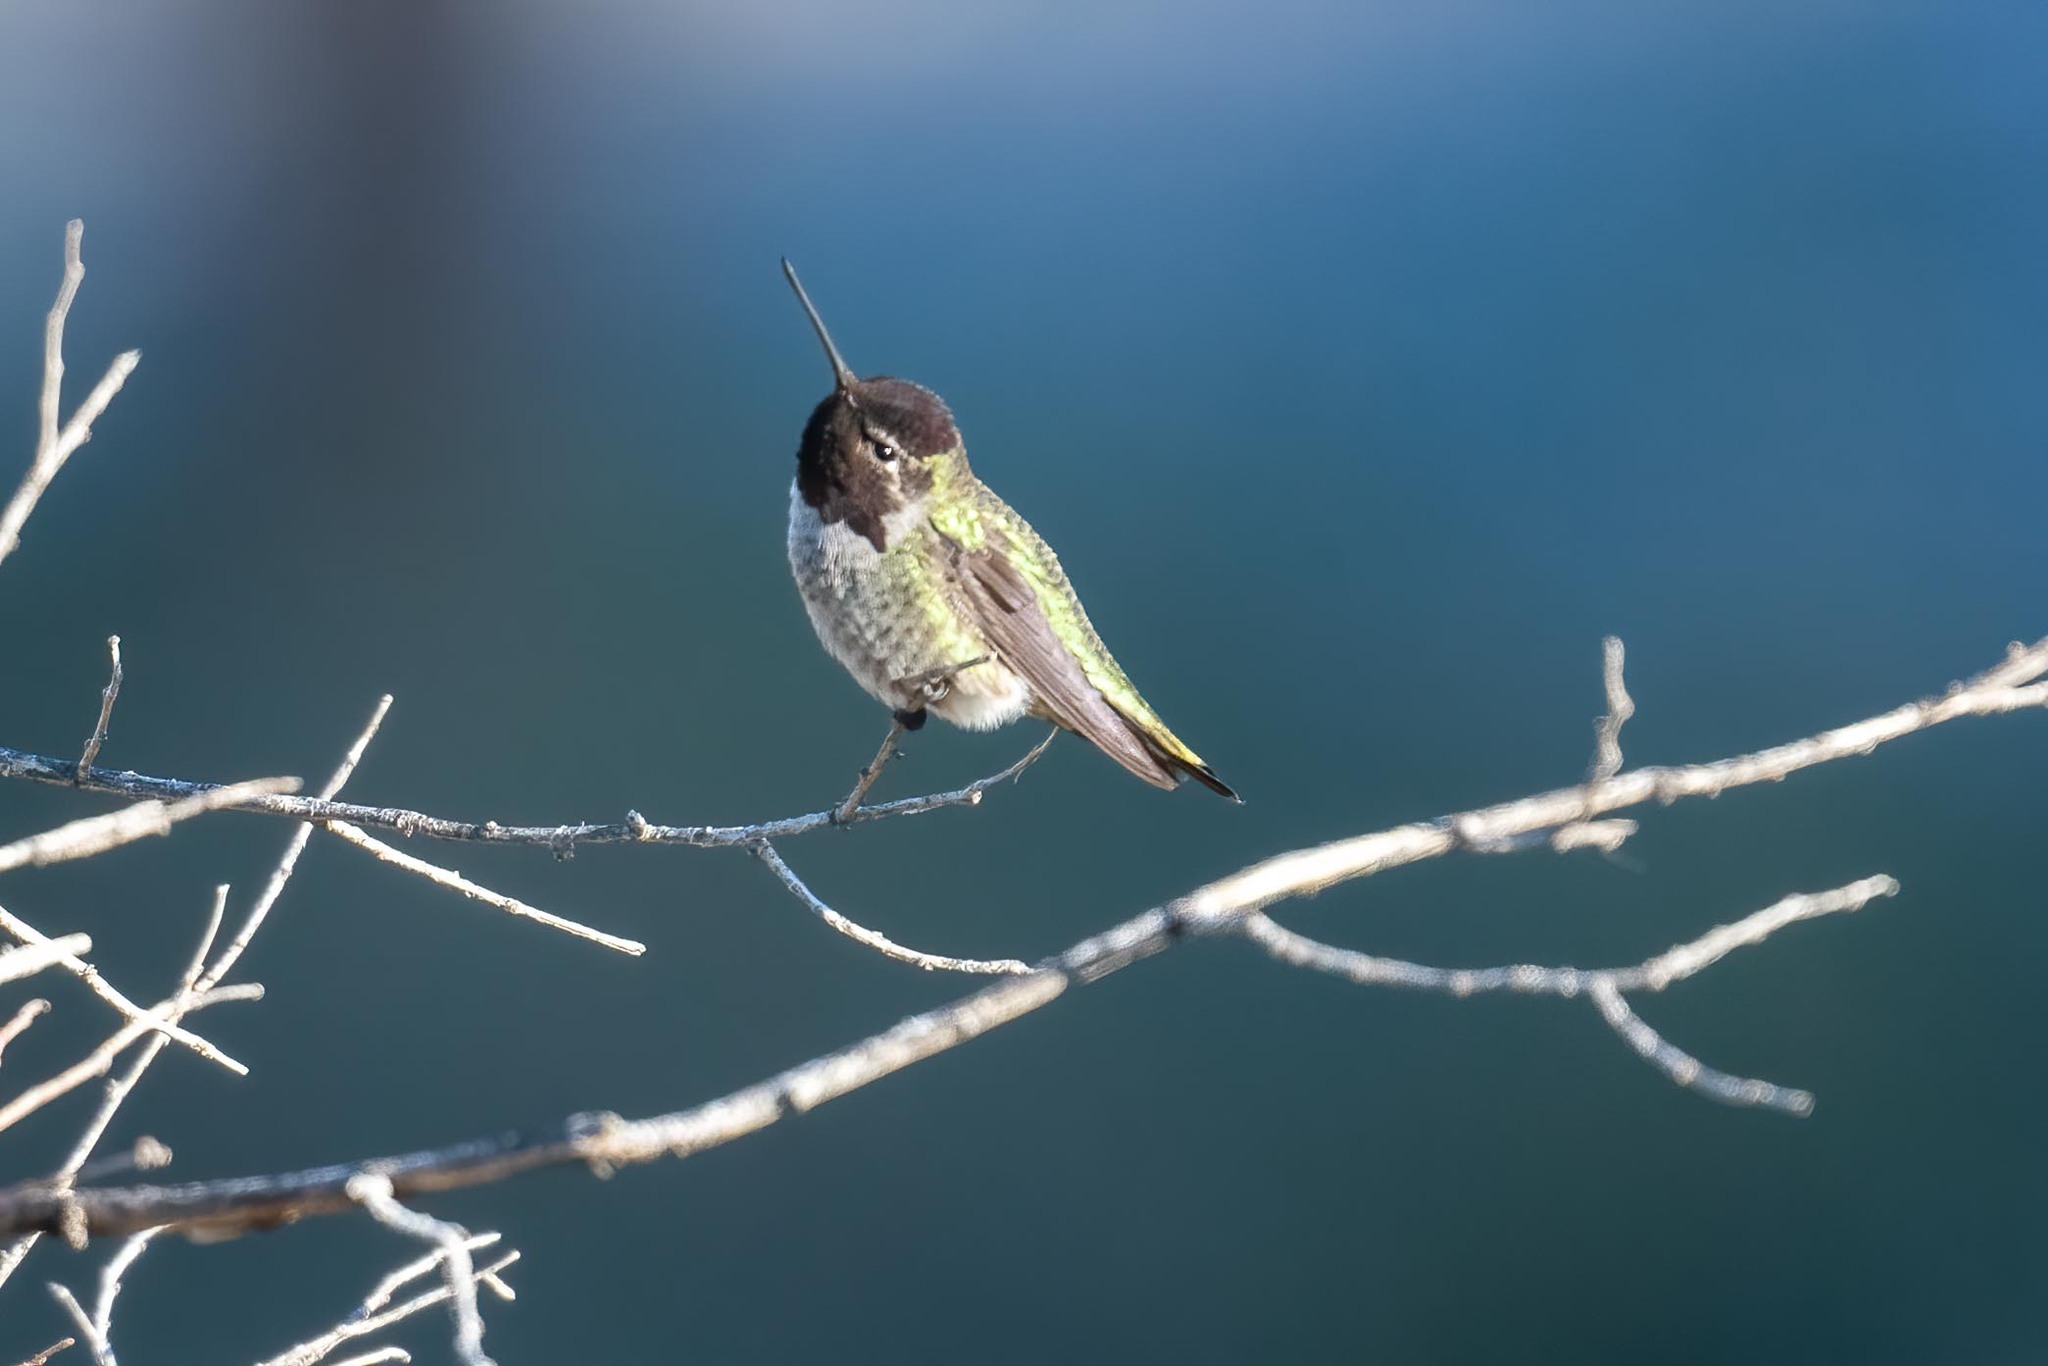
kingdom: Animalia
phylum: Chordata
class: Aves
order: Apodiformes
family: Trochilidae
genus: Calypte
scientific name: Calypte anna
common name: Anna's hummingbird
